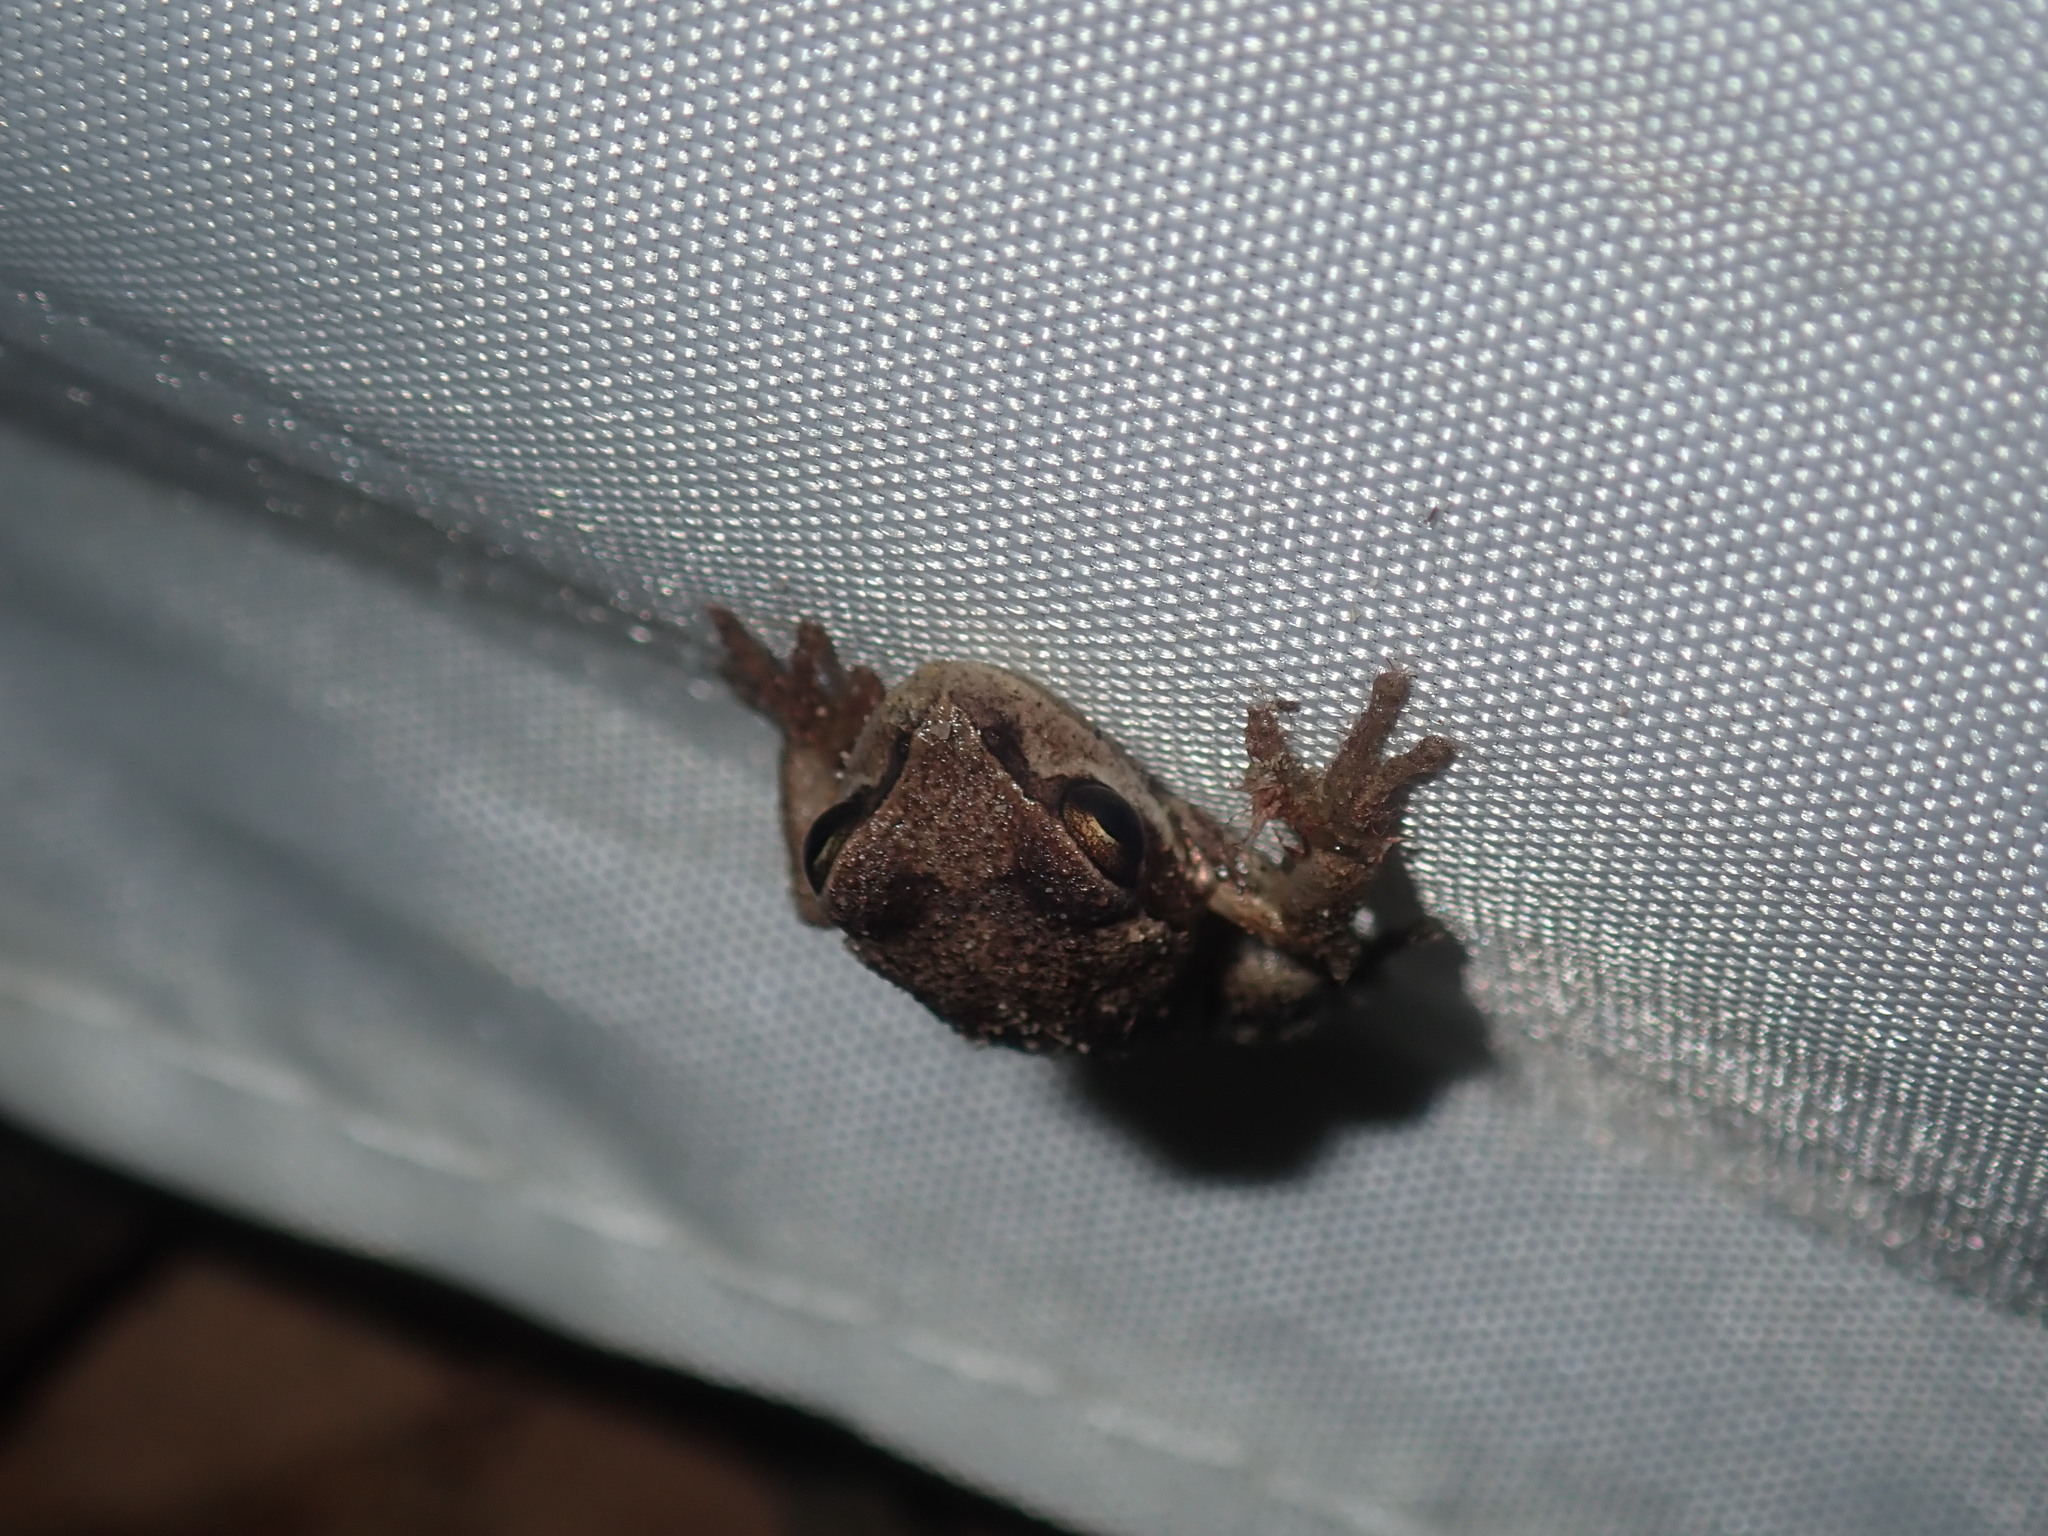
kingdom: Animalia
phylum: Chordata
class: Amphibia
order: Anura
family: Pelodryadidae
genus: Litoria
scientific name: Litoria verreauxii
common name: Alpine tree frog
